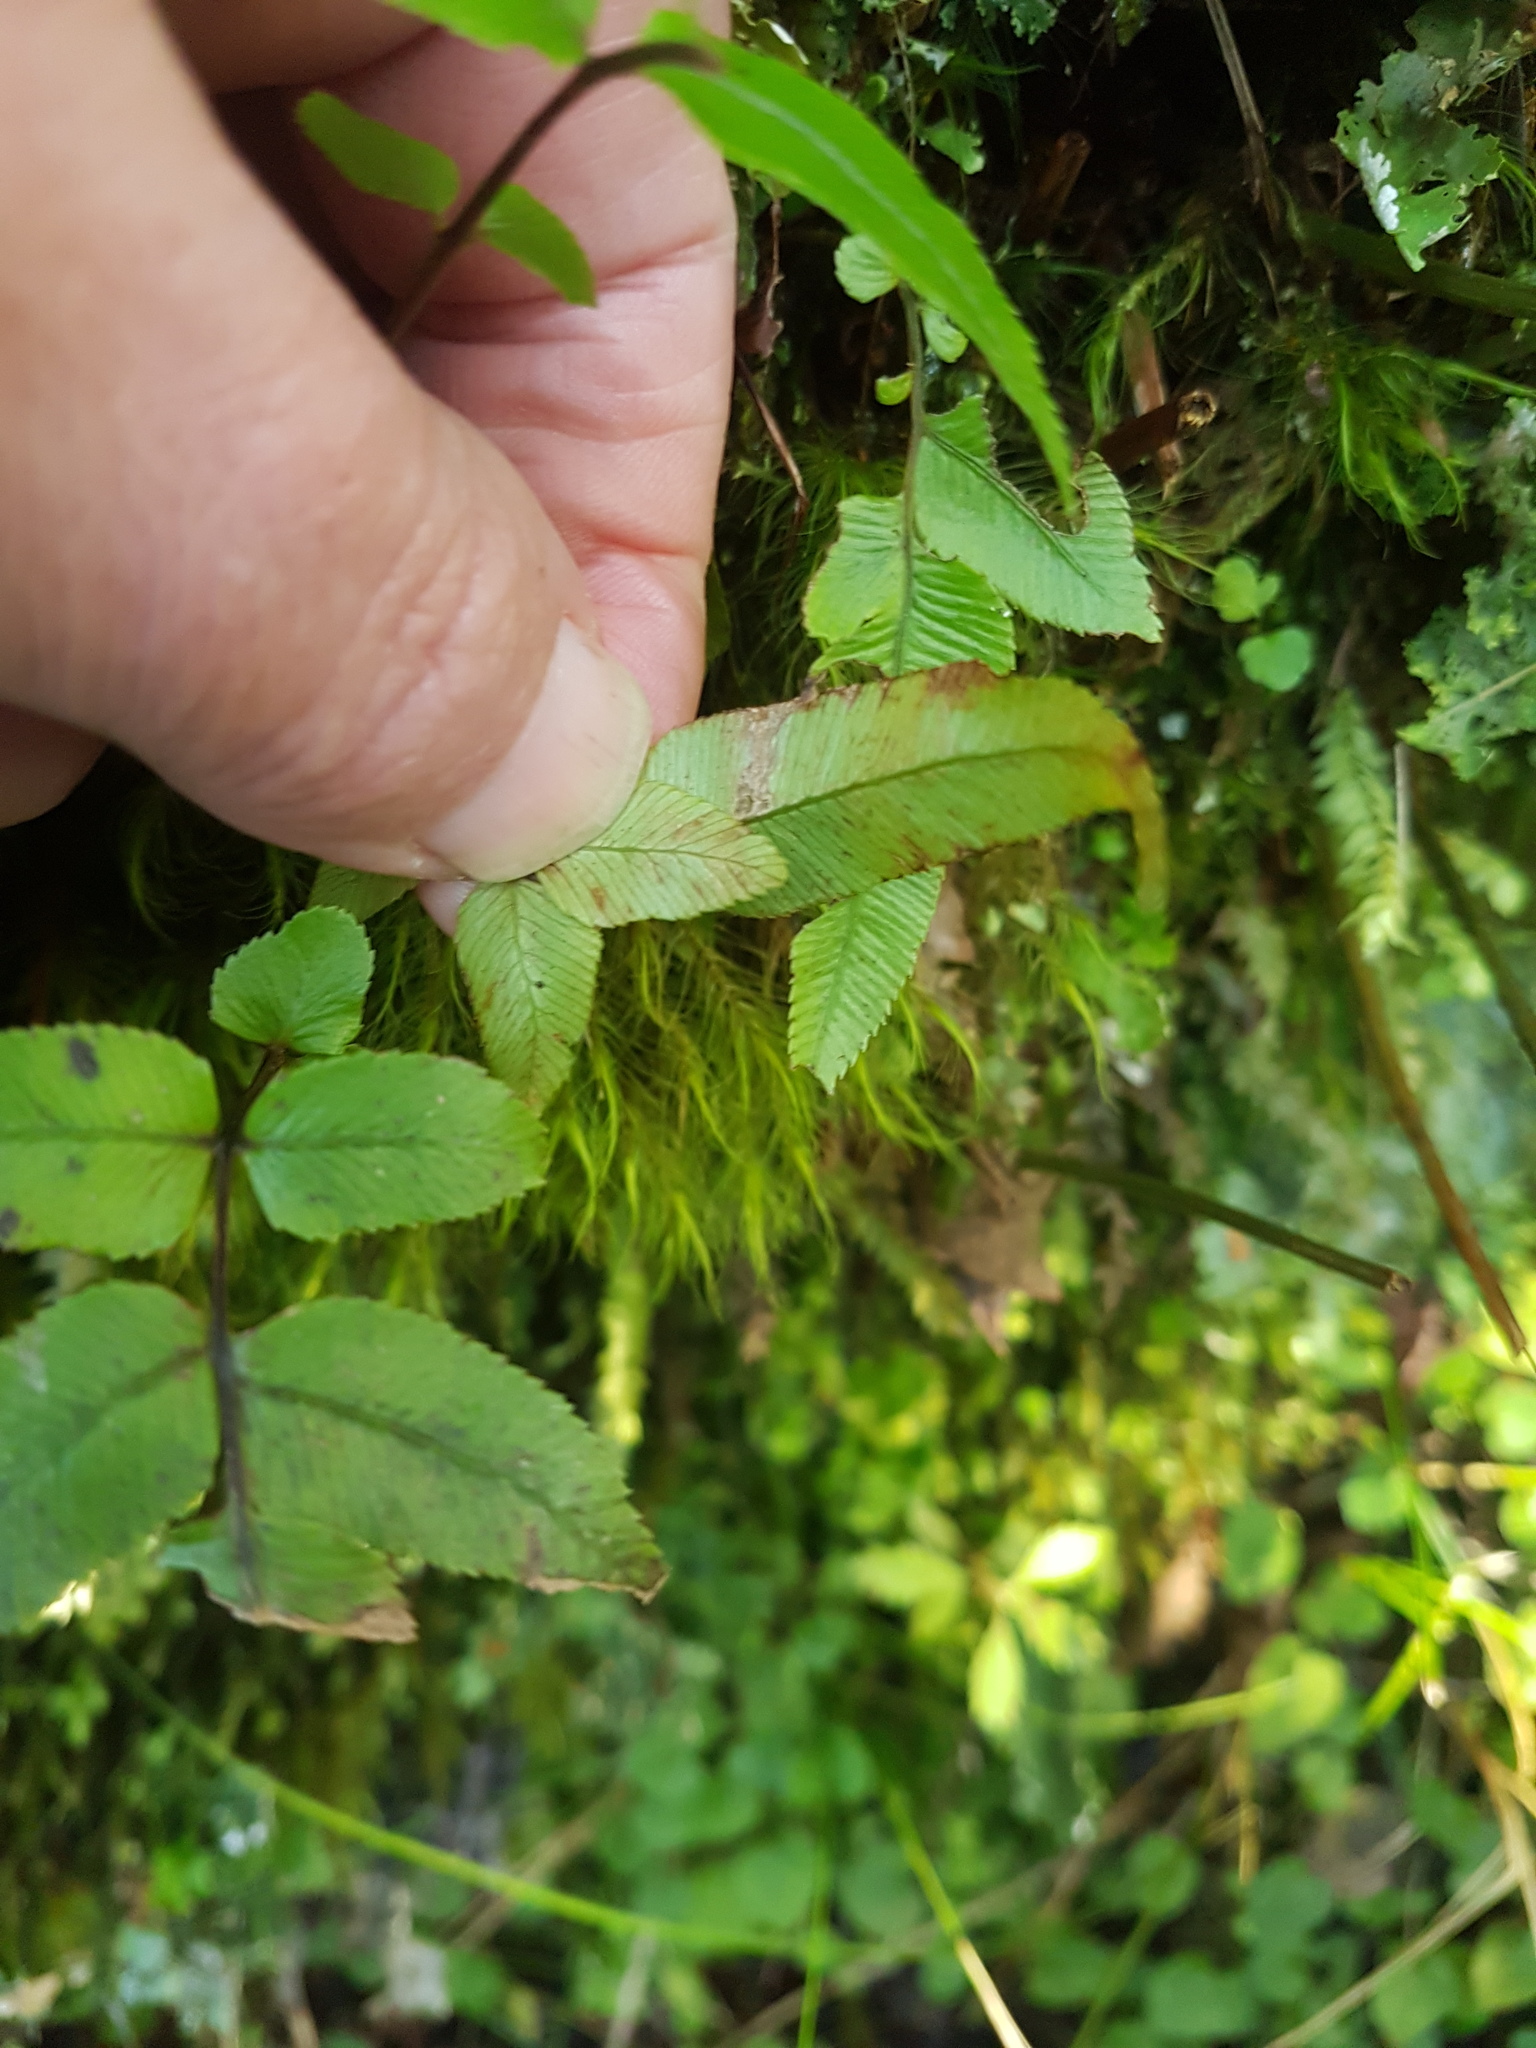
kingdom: Plantae
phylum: Tracheophyta
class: Polypodiopsida
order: Polypodiales
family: Blechnaceae
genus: Parablechnum
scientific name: Parablechnum procerum
